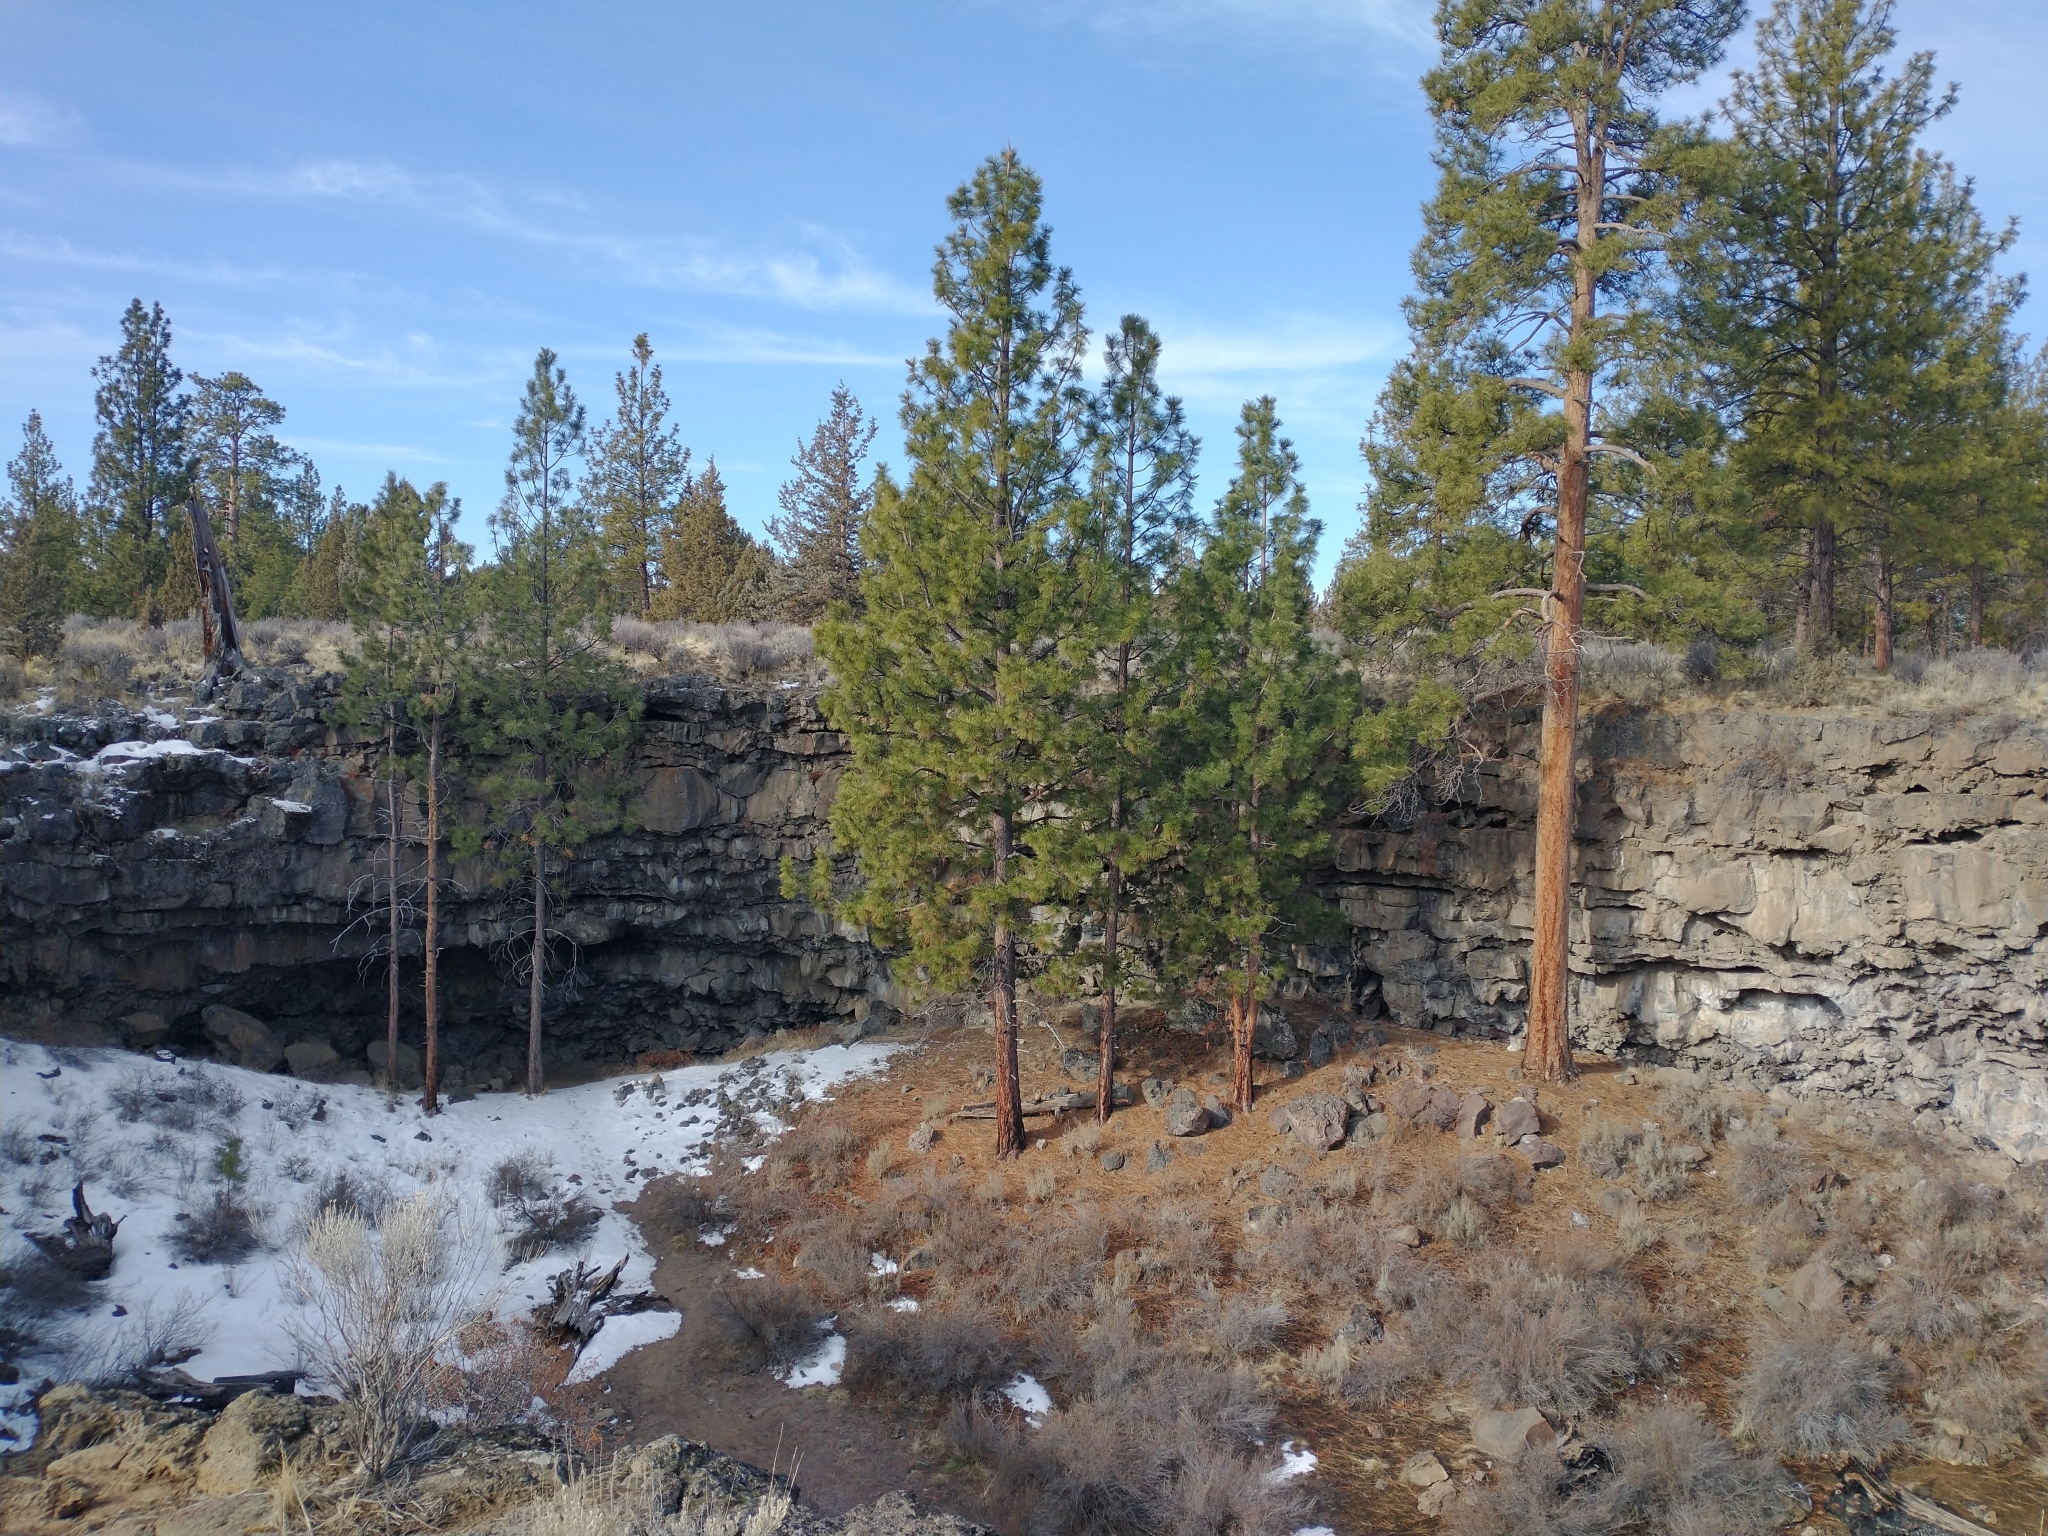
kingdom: Plantae
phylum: Tracheophyta
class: Pinopsida
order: Pinales
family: Pinaceae
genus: Pinus
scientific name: Pinus ponderosa
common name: Western yellow-pine
